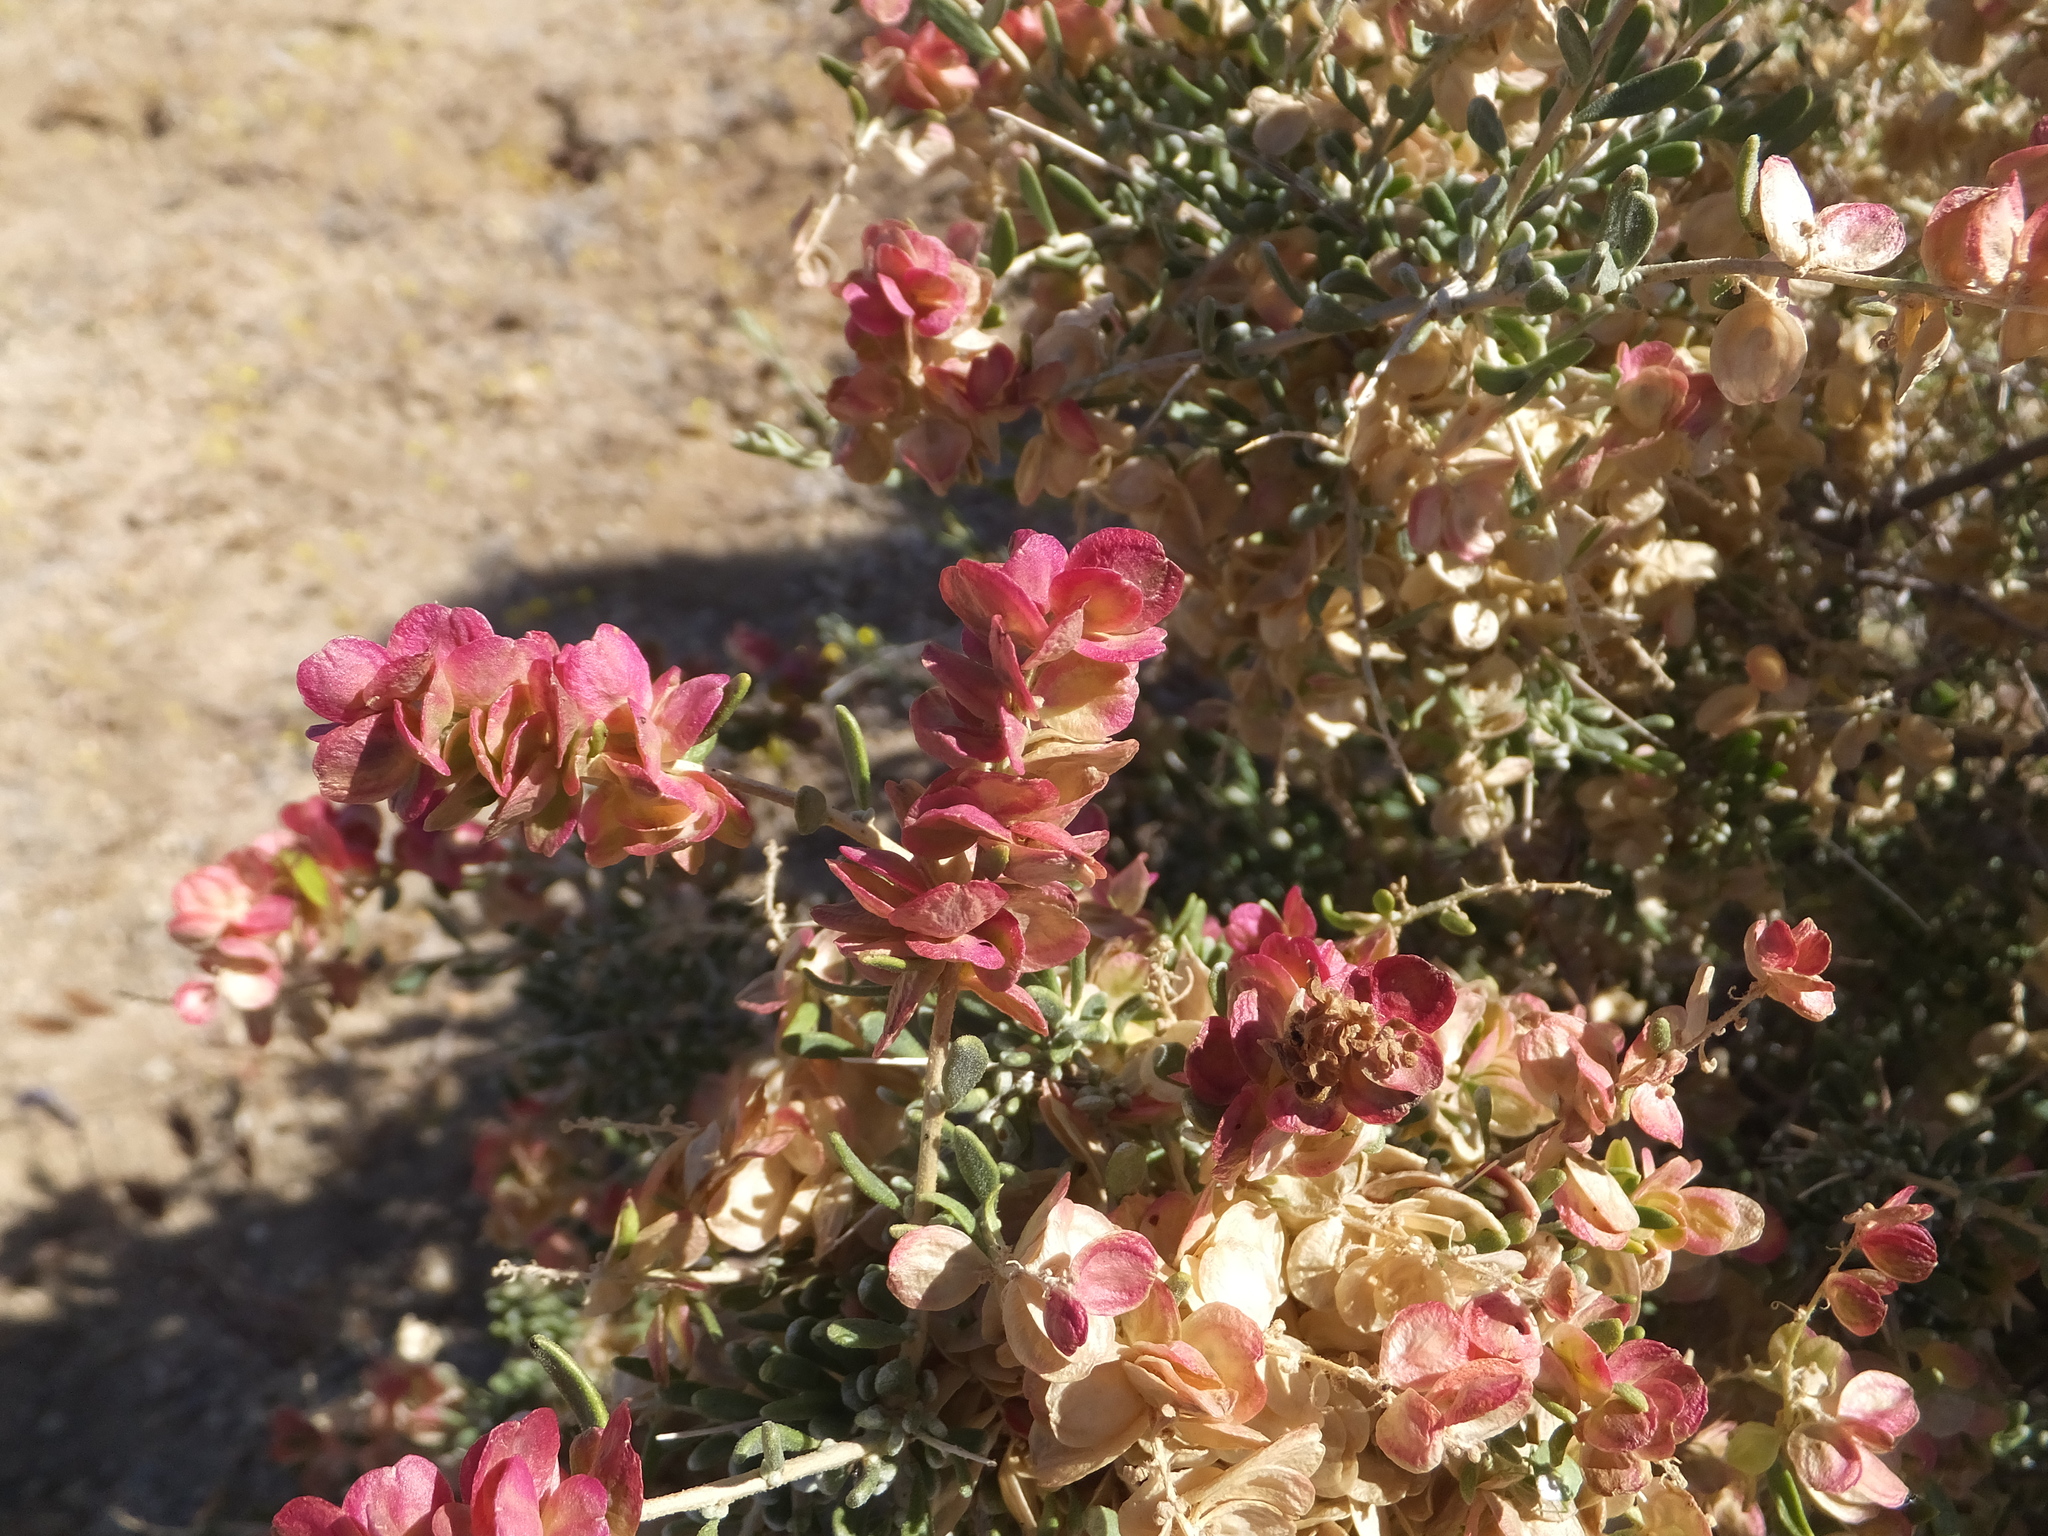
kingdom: Plantae
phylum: Tracheophyta
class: Magnoliopsida
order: Caryophyllales
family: Amaranthaceae
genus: Grayia
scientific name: Grayia spinosa
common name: Spiny hopsage
